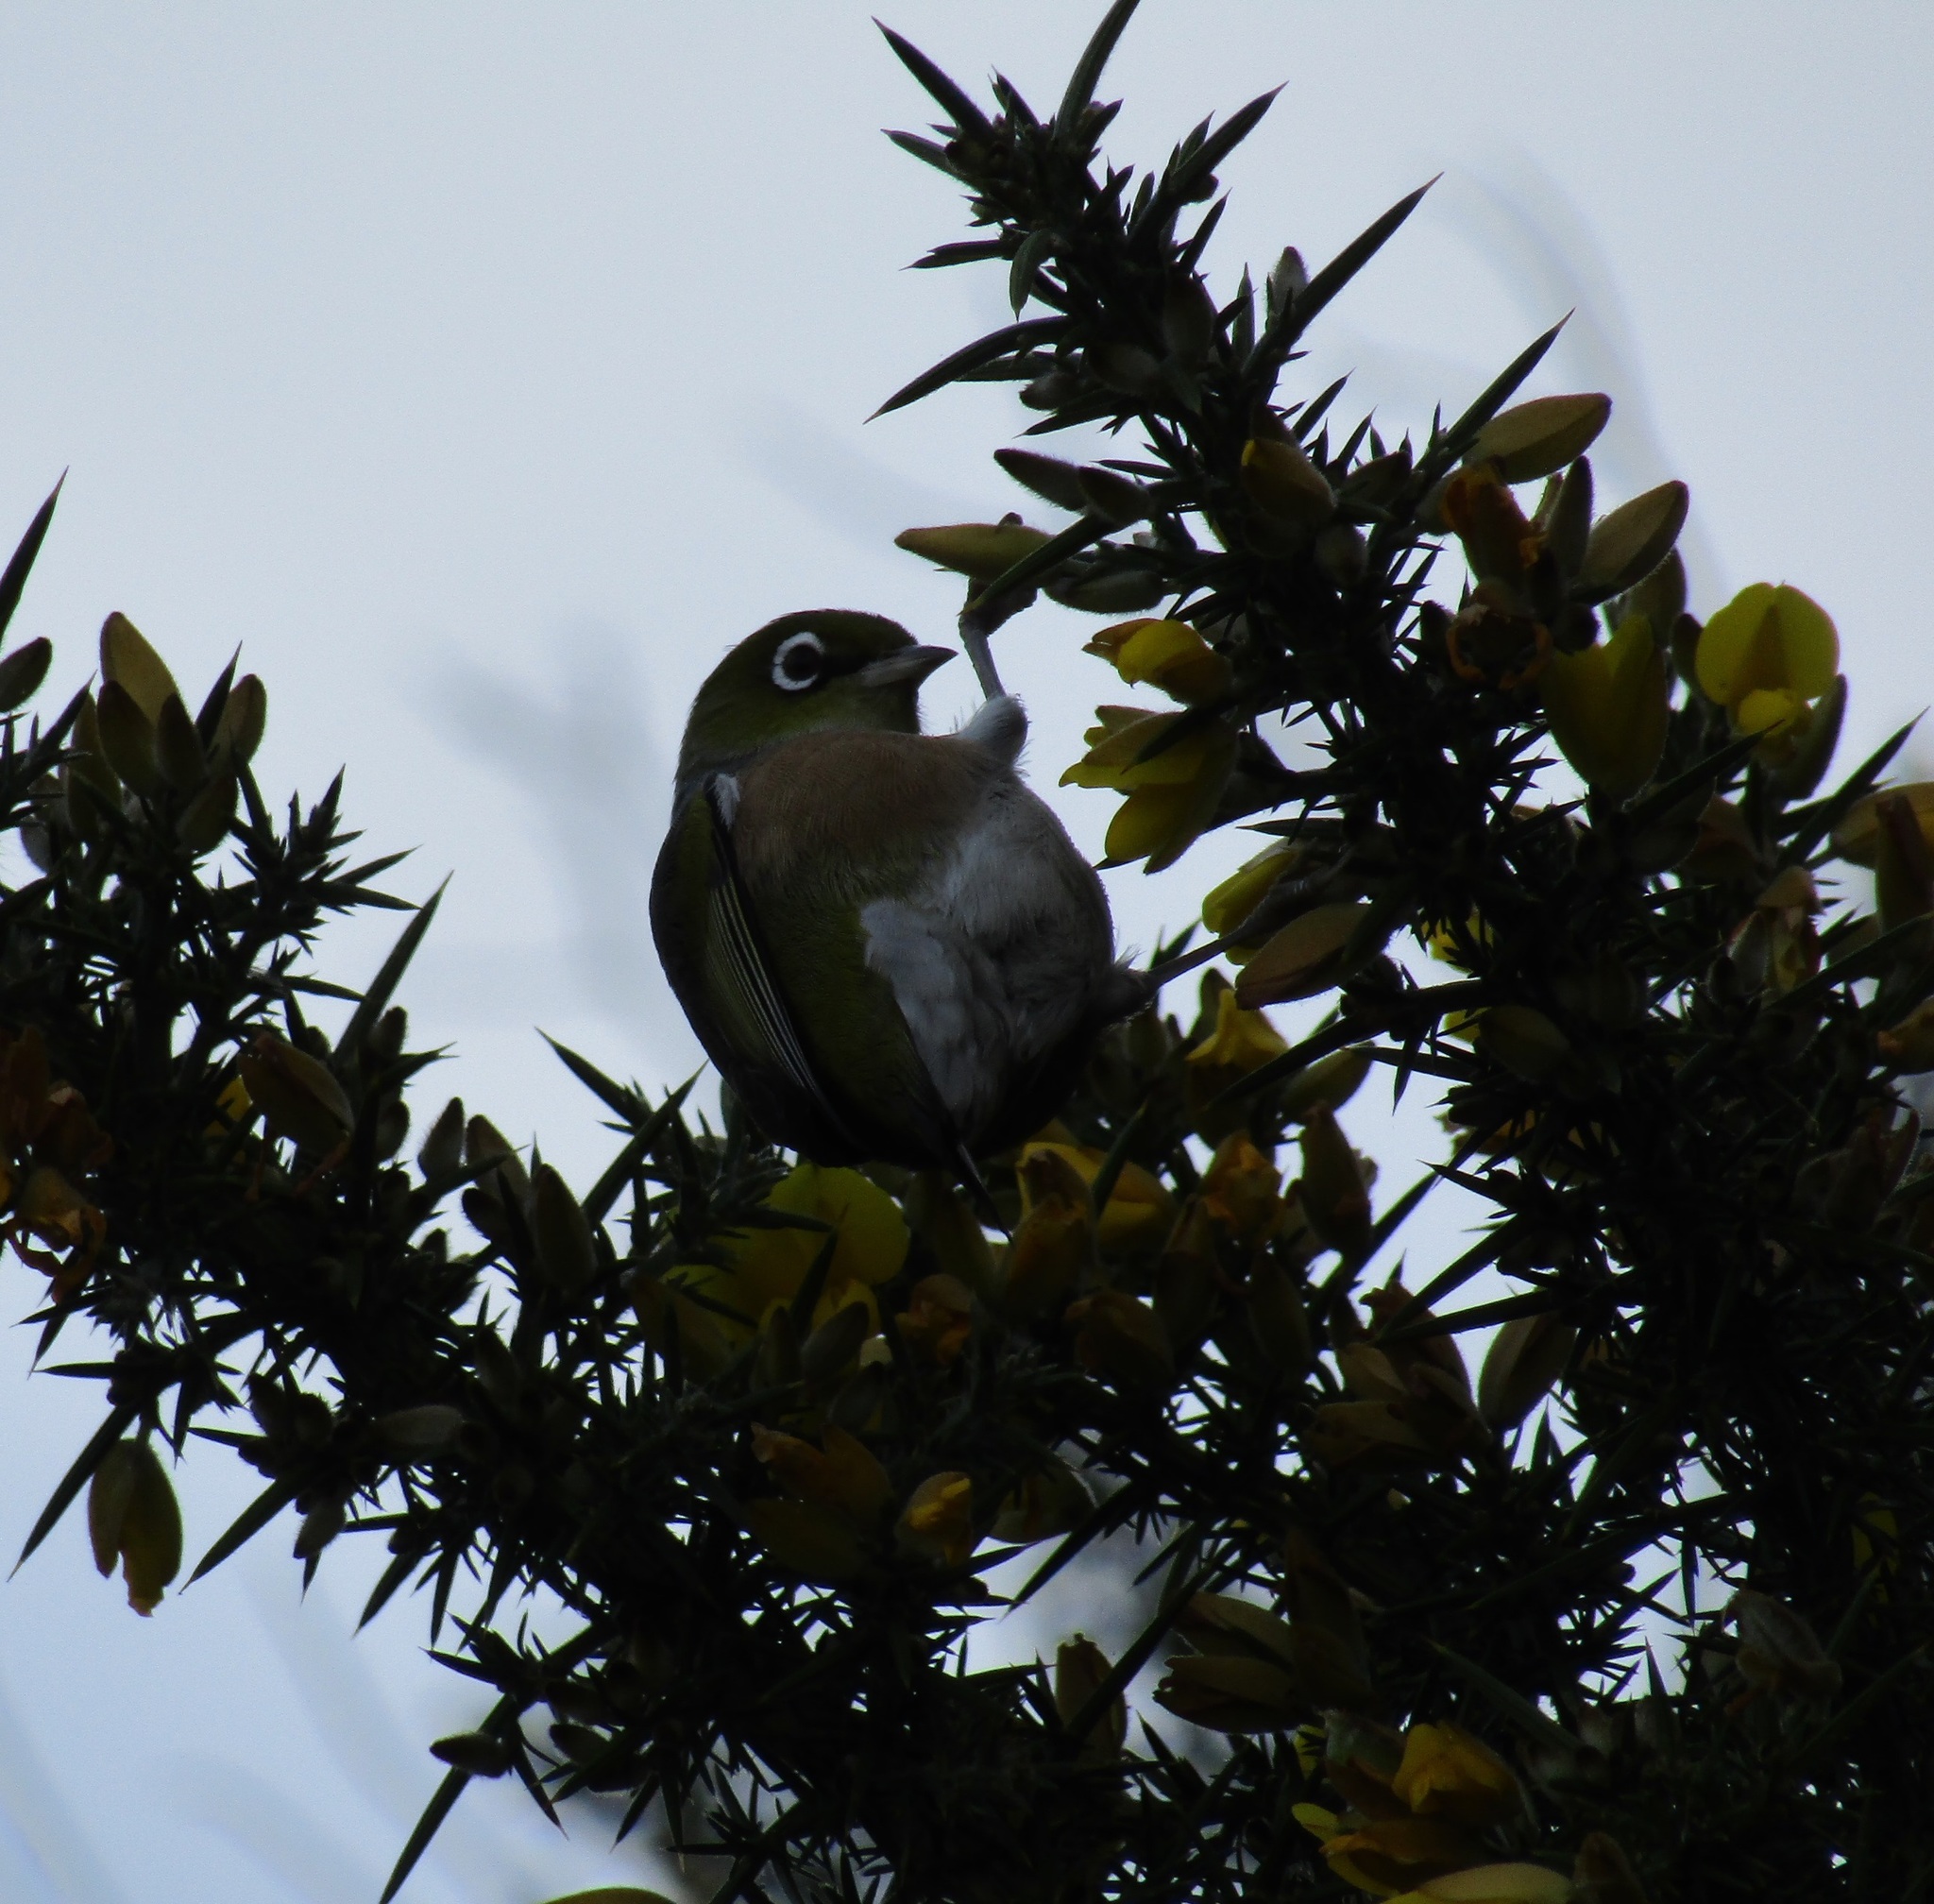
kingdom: Animalia
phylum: Chordata
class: Aves
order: Passeriformes
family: Zosteropidae
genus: Zosterops
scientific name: Zosterops lateralis
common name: Silvereye
